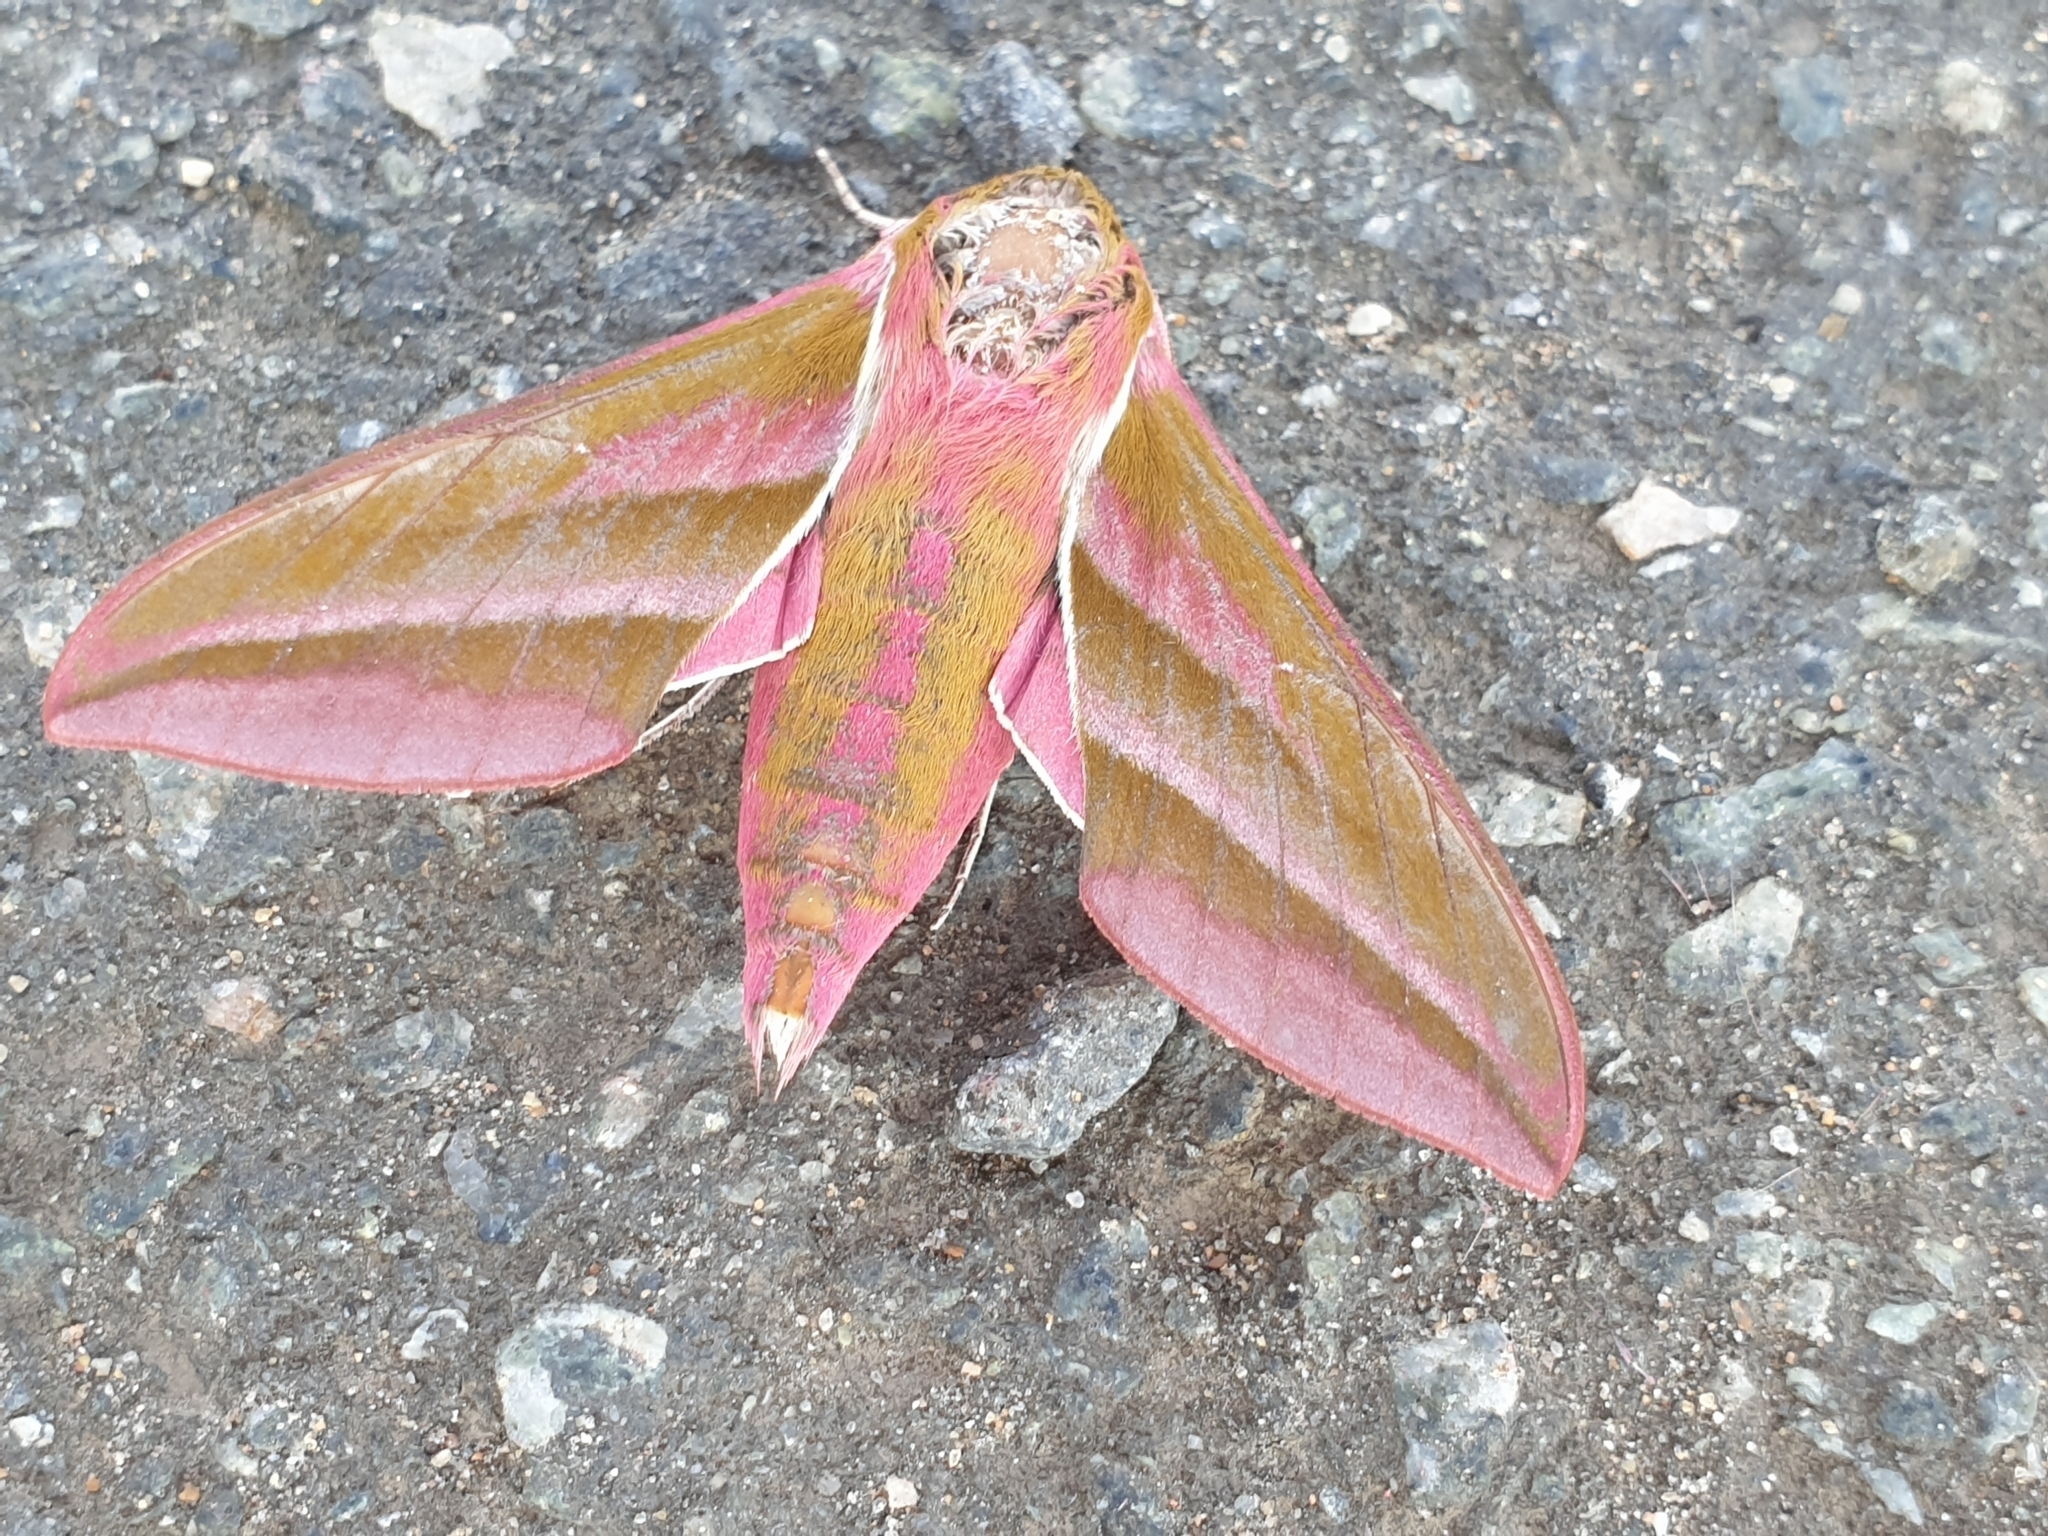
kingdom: Animalia
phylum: Arthropoda
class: Insecta
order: Lepidoptera
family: Sphingidae
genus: Deilephila
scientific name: Deilephila elpenor
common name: Elephant hawk-moth
